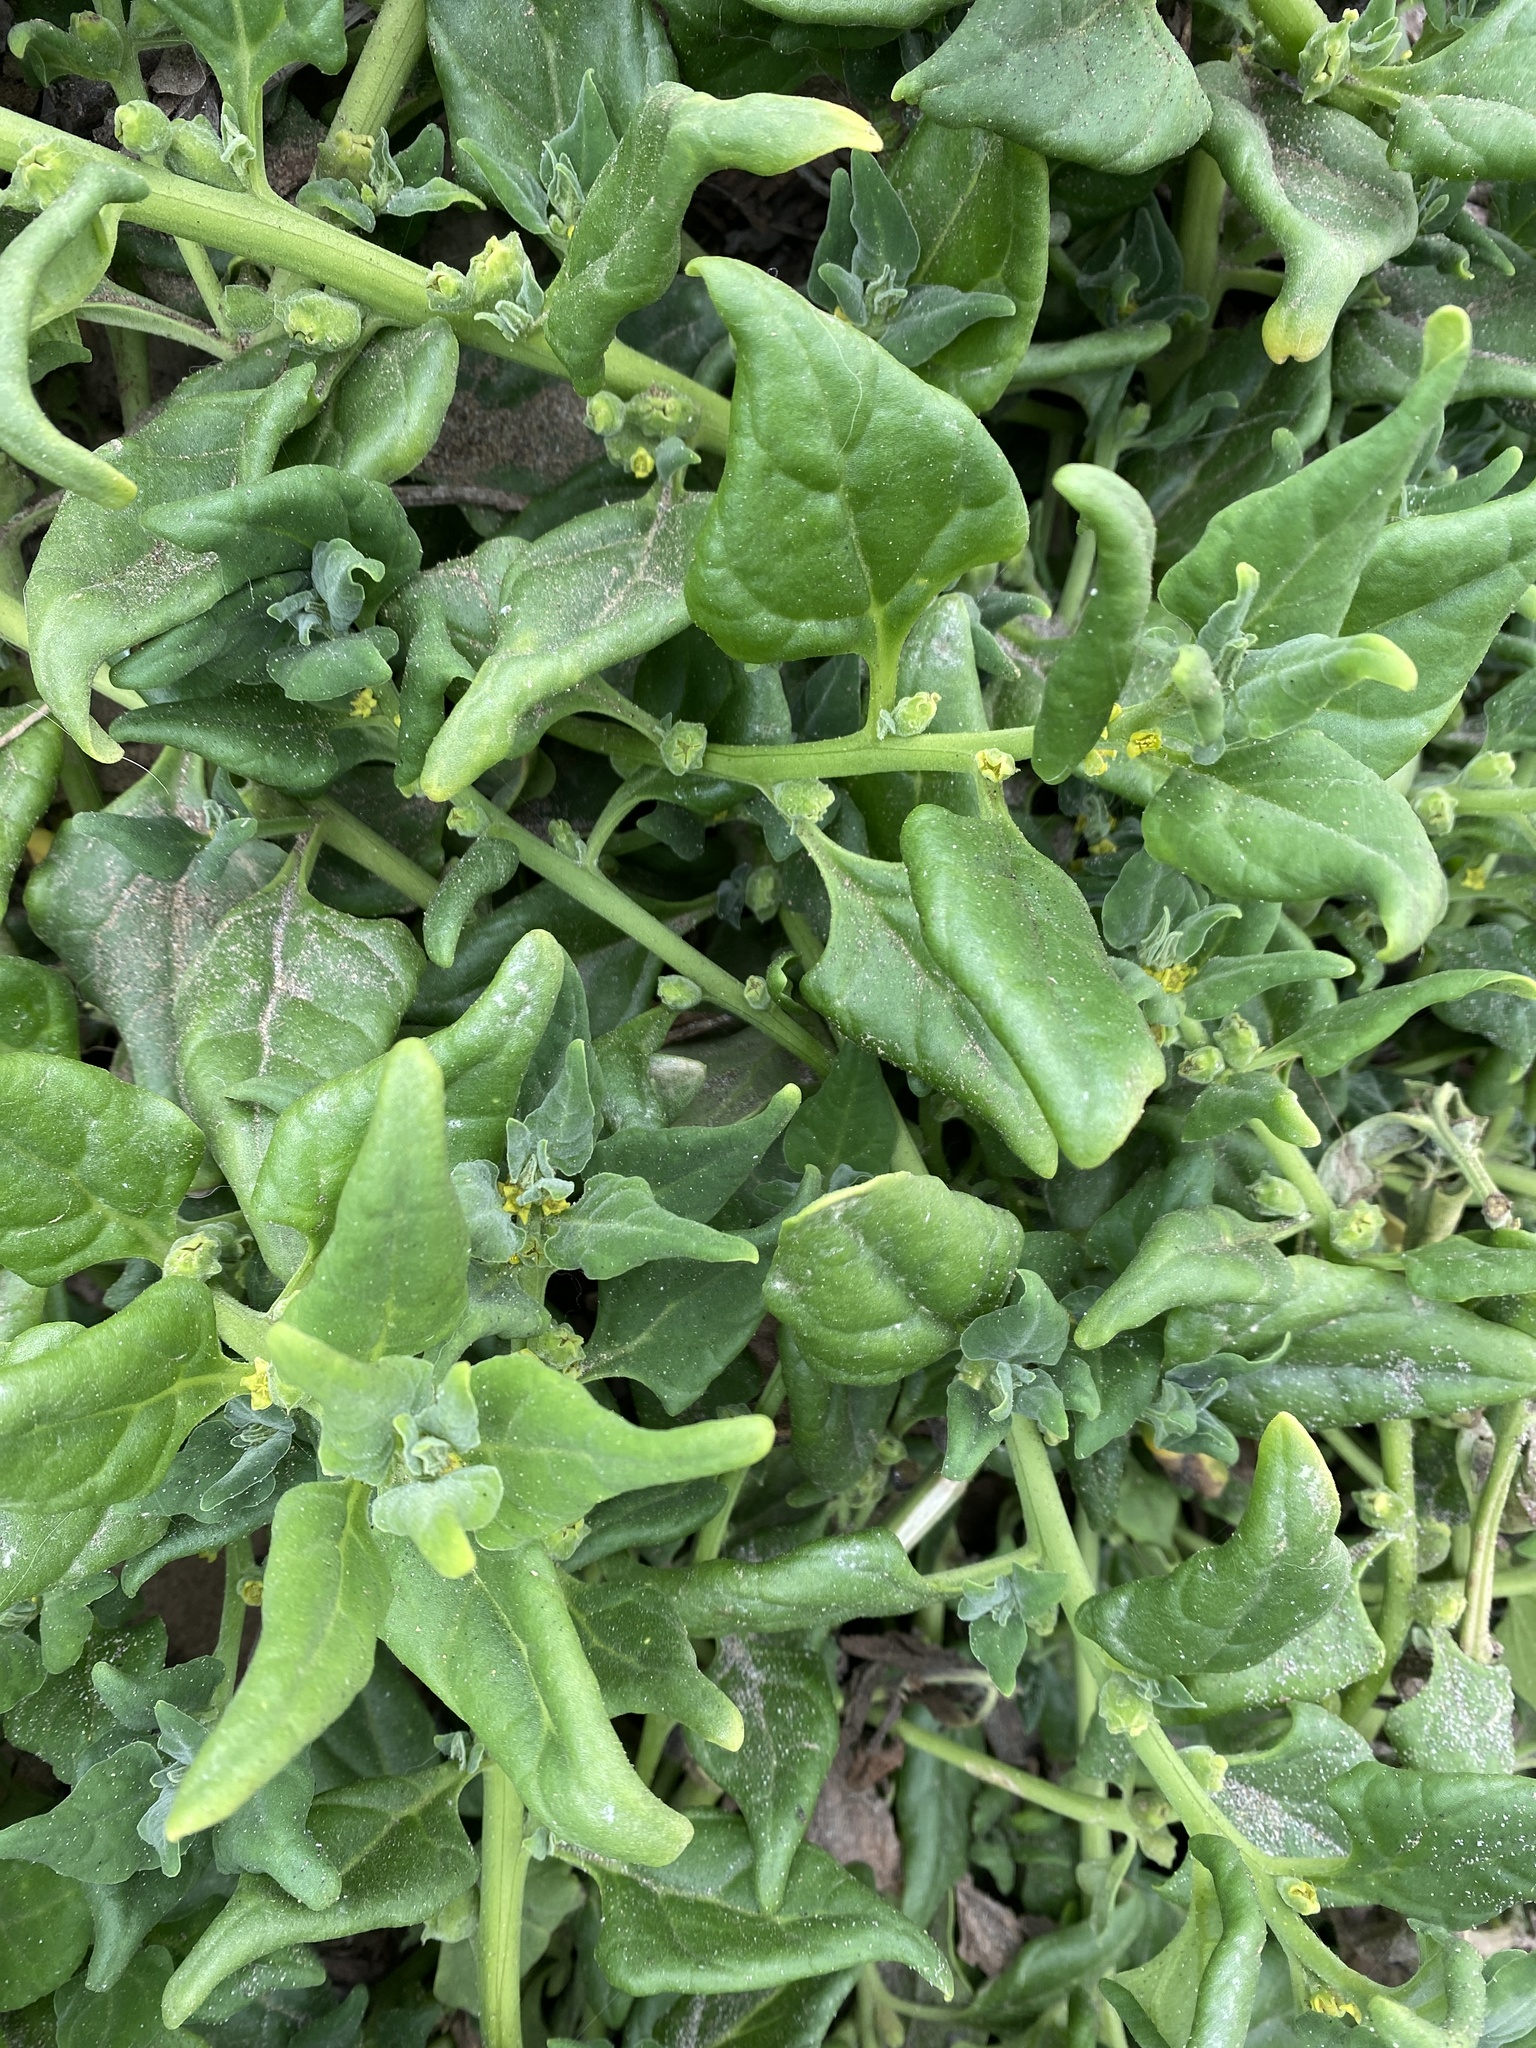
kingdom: Plantae
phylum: Tracheophyta
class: Magnoliopsida
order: Caryophyllales
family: Aizoaceae
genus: Tetragonia
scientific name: Tetragonia tetragonoides
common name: New zealand-spinach
